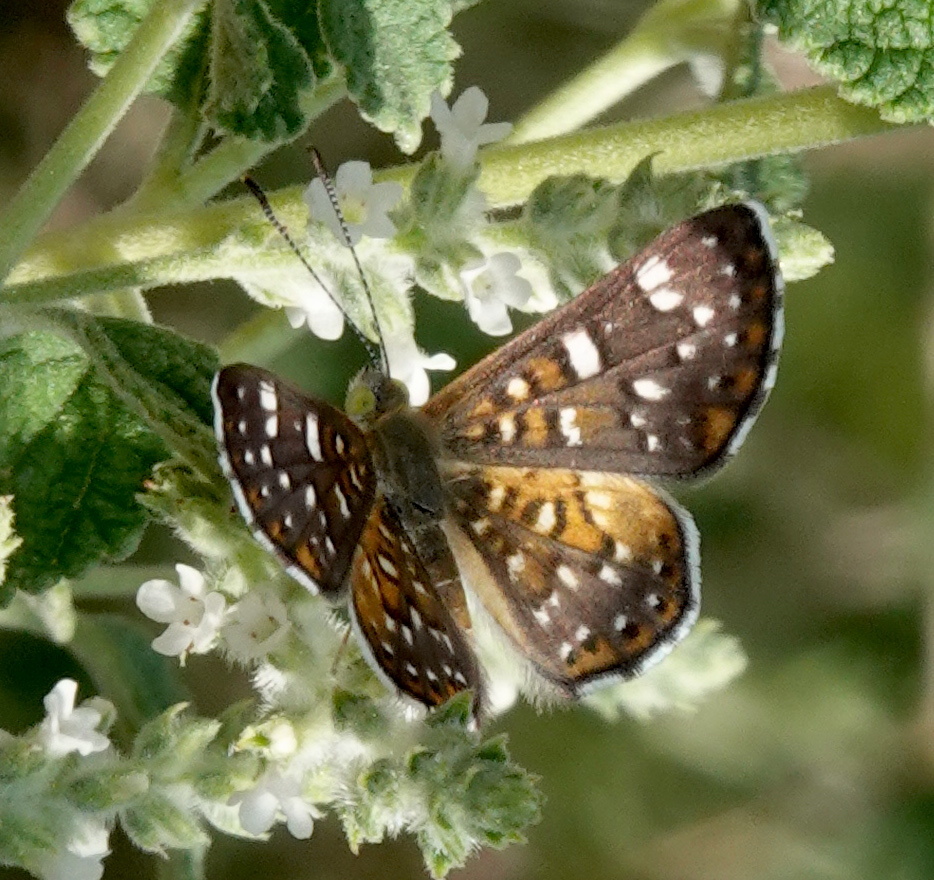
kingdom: Animalia
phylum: Arthropoda
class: Insecta
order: Lepidoptera
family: Riodinidae
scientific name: Riodinidae
